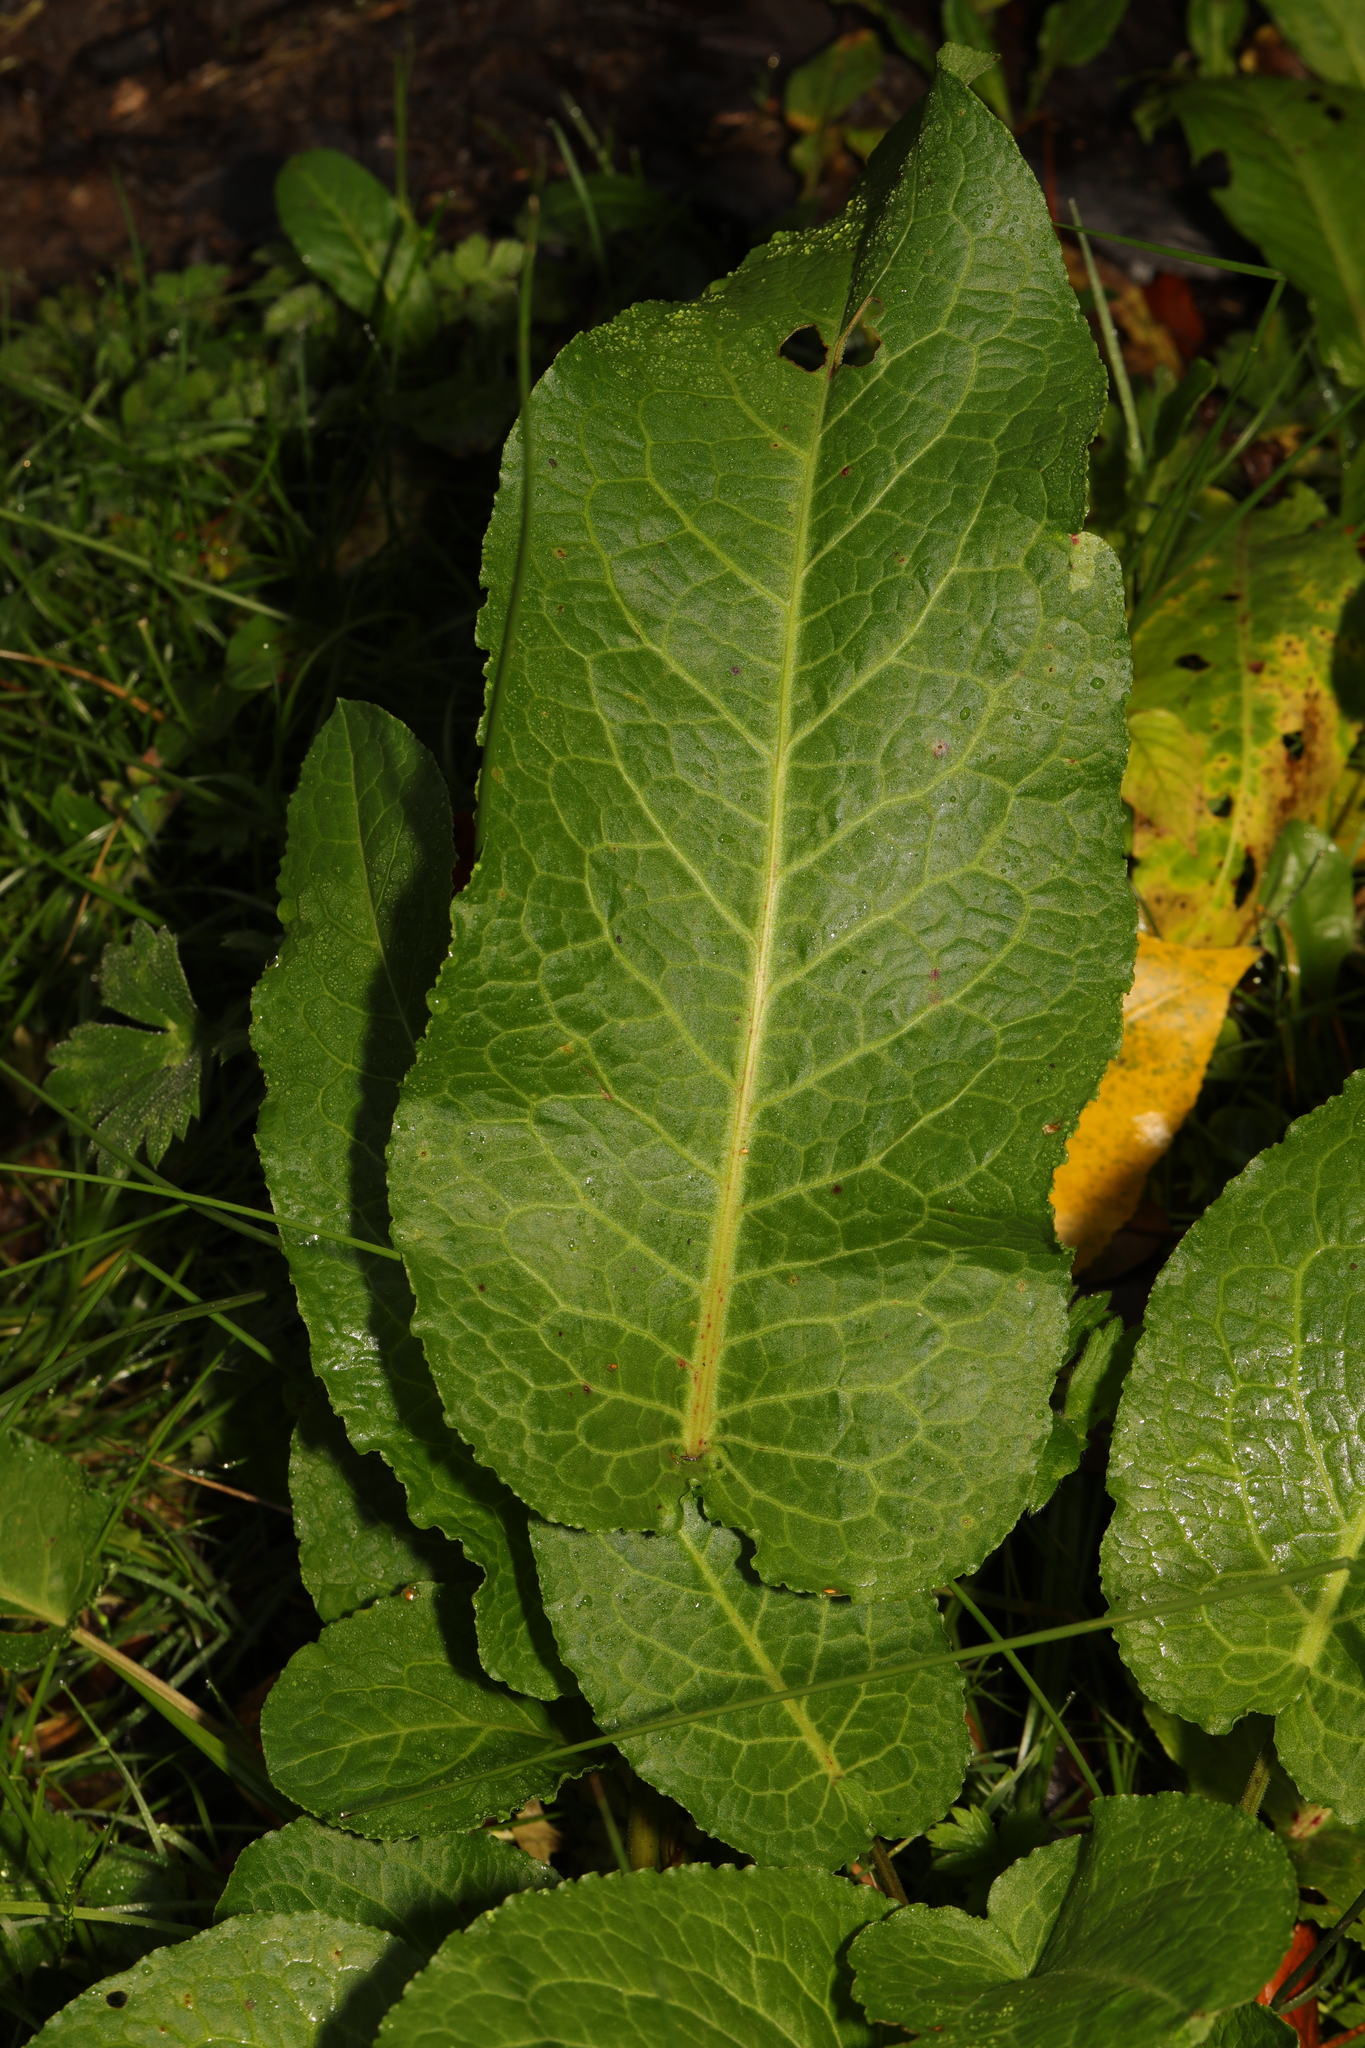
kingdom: Plantae
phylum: Tracheophyta
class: Magnoliopsida
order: Caryophyllales
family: Polygonaceae
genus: Rumex
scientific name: Rumex obtusifolius
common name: Bitter dock
